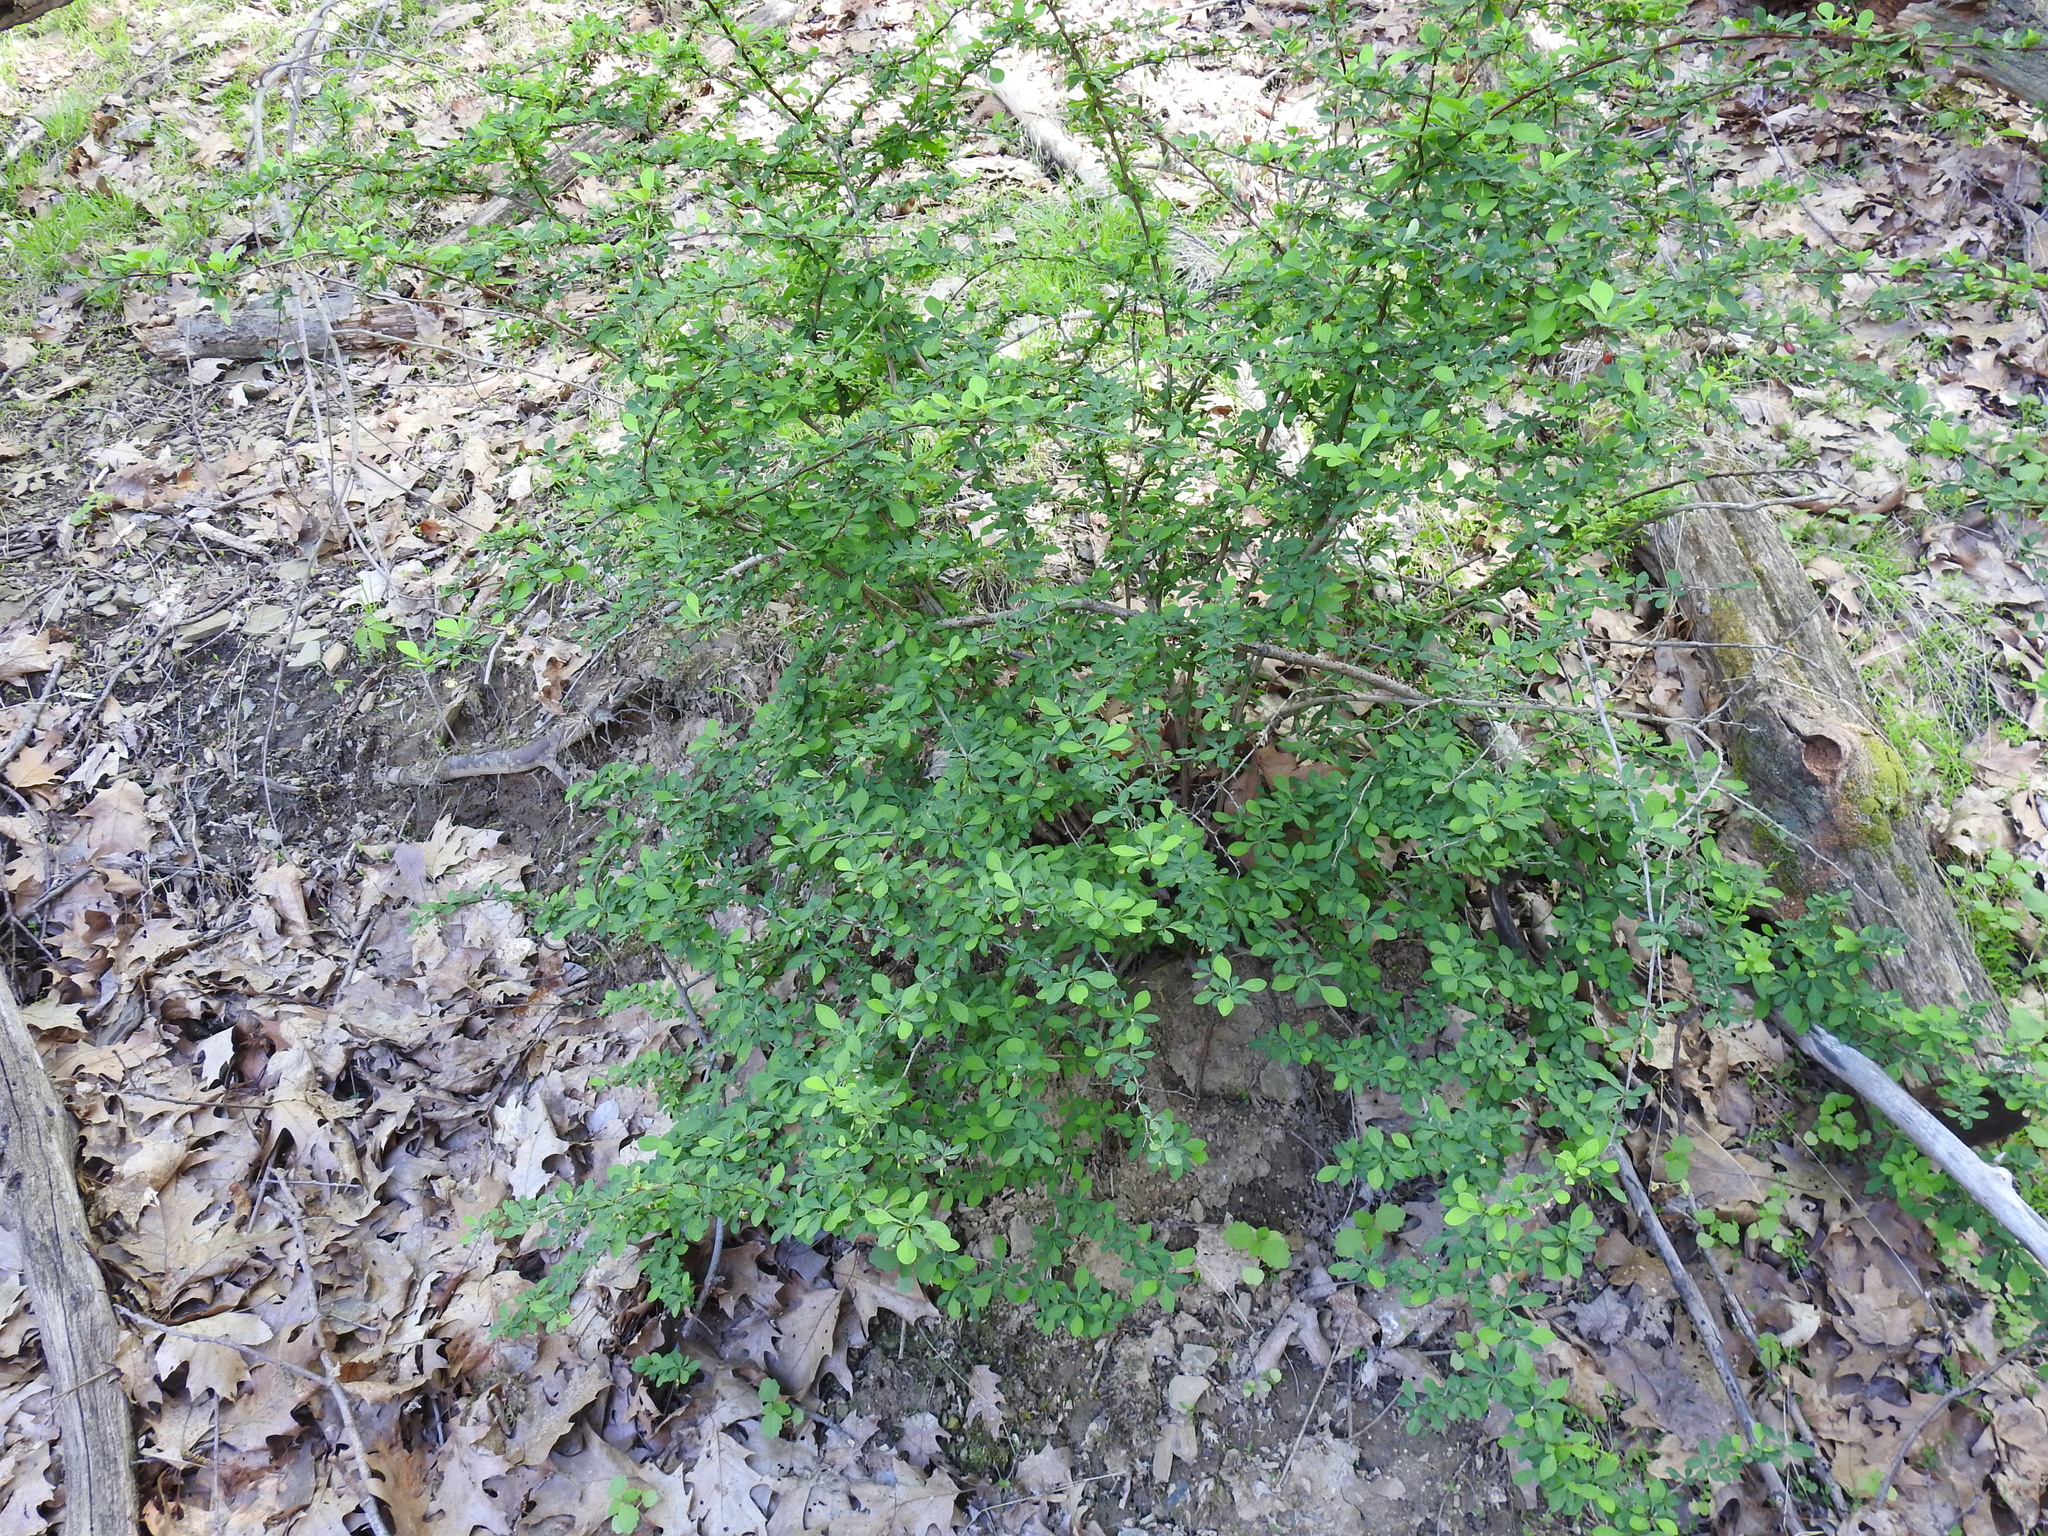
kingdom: Plantae
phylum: Tracheophyta
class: Magnoliopsida
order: Ranunculales
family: Berberidaceae
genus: Berberis
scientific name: Berberis thunbergii
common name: Japanese barberry
